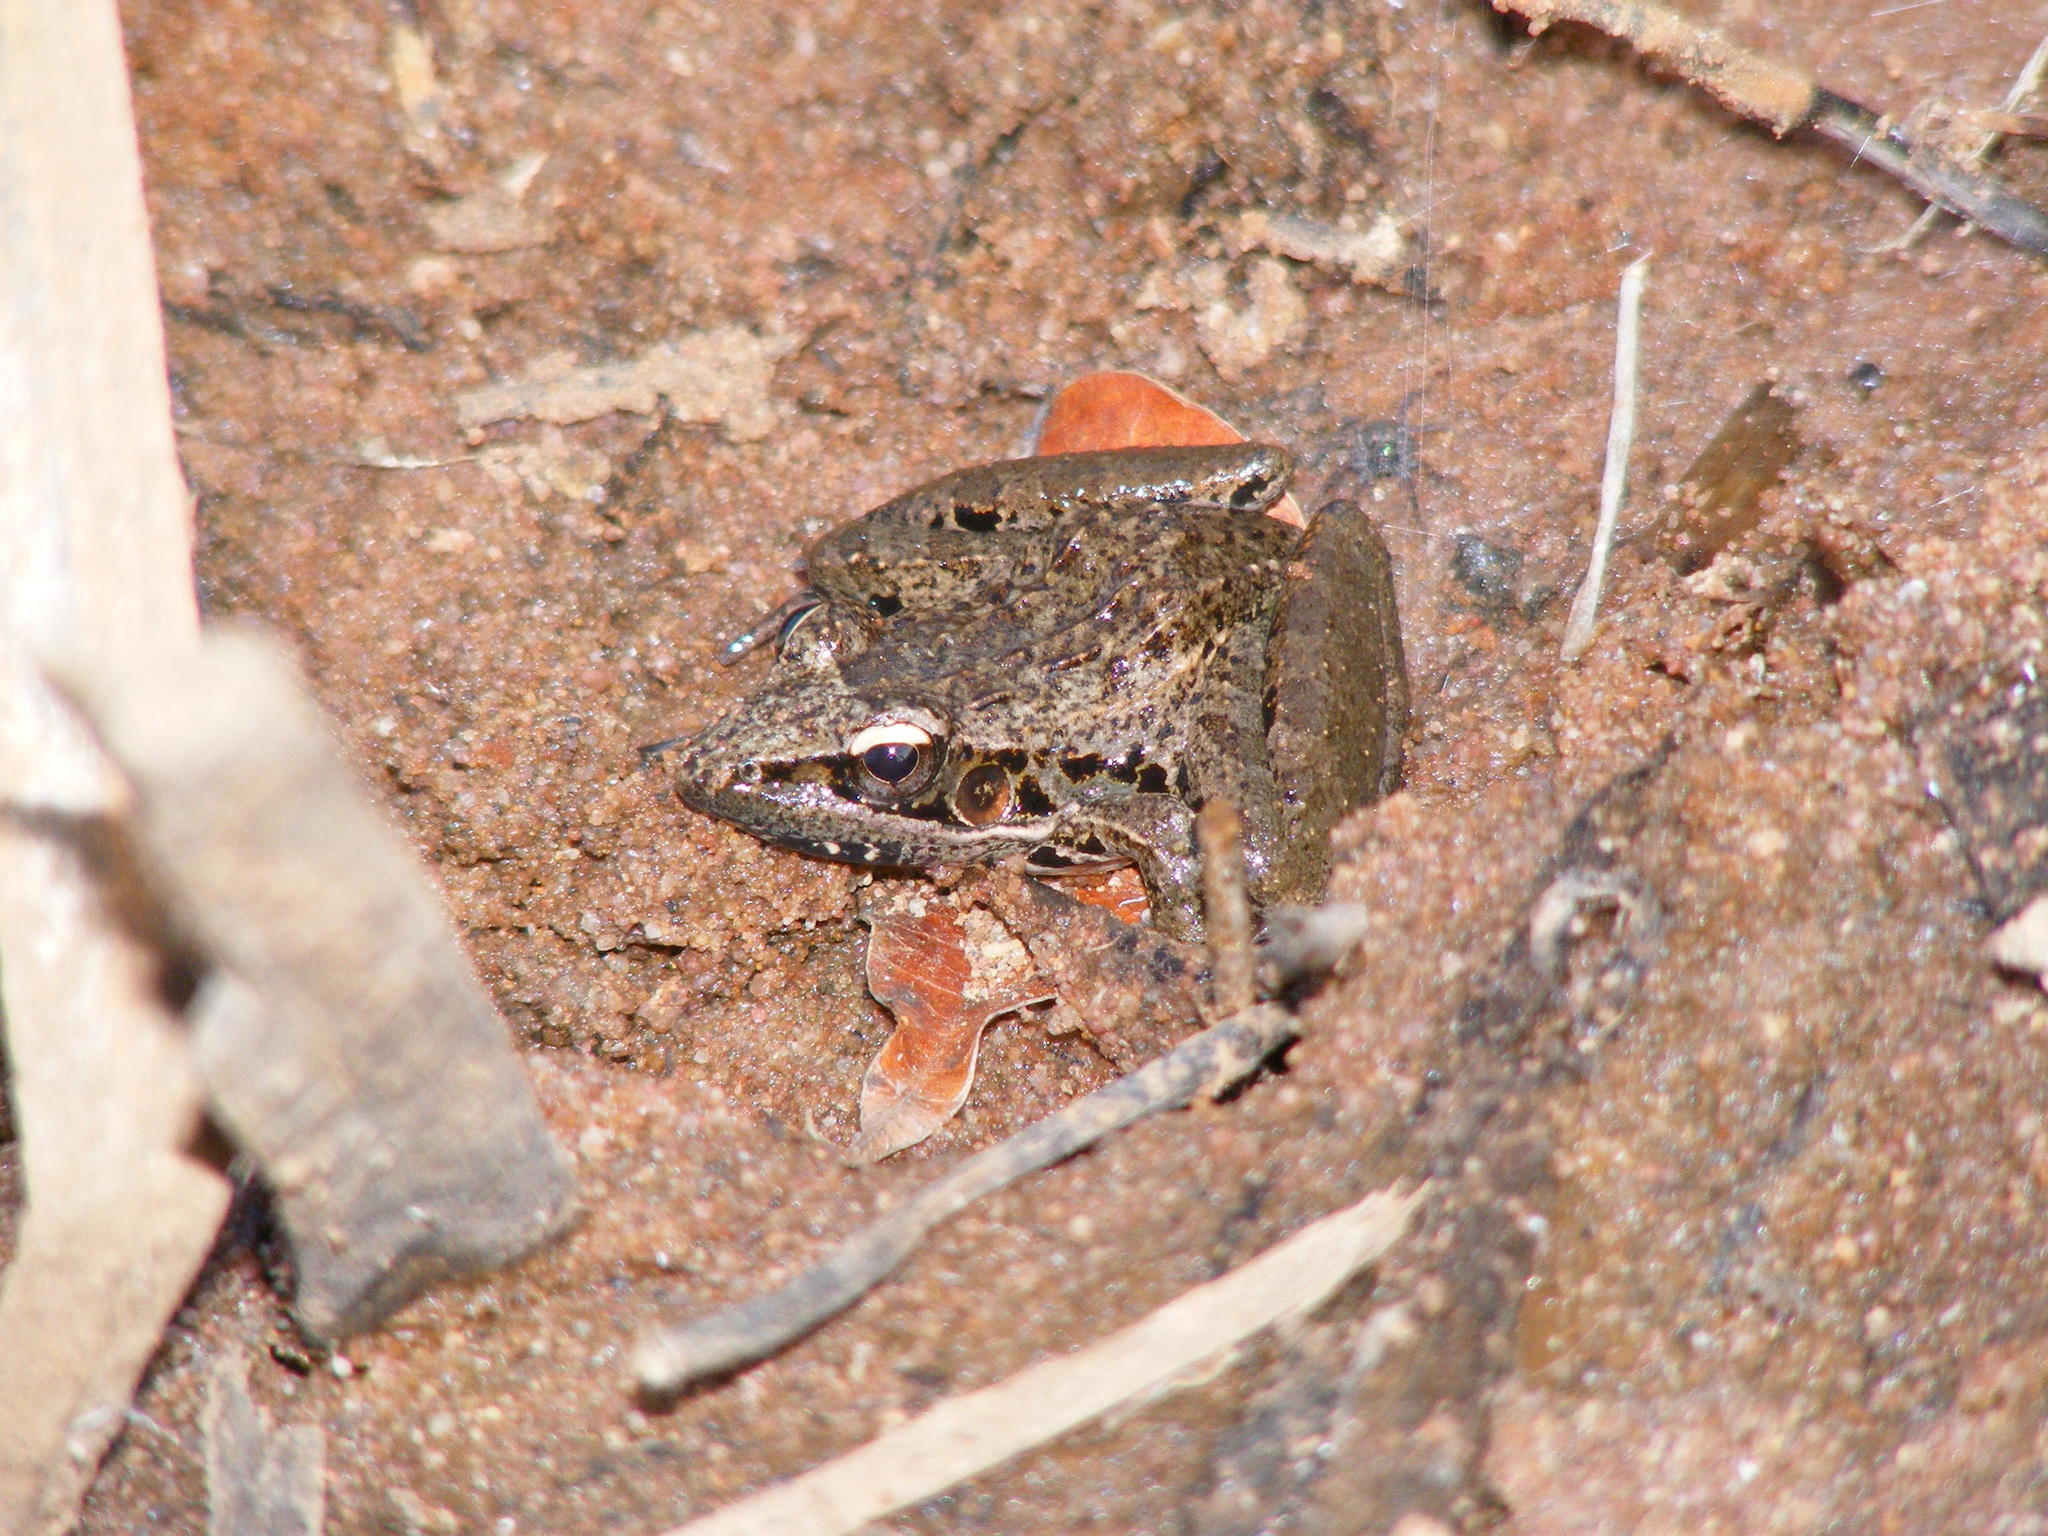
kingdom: Animalia
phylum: Chordata
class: Amphibia
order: Anura
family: Ptychadenidae
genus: Ptychadena
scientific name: Ptychadena anchietae
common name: Anchieta's ridged frog
